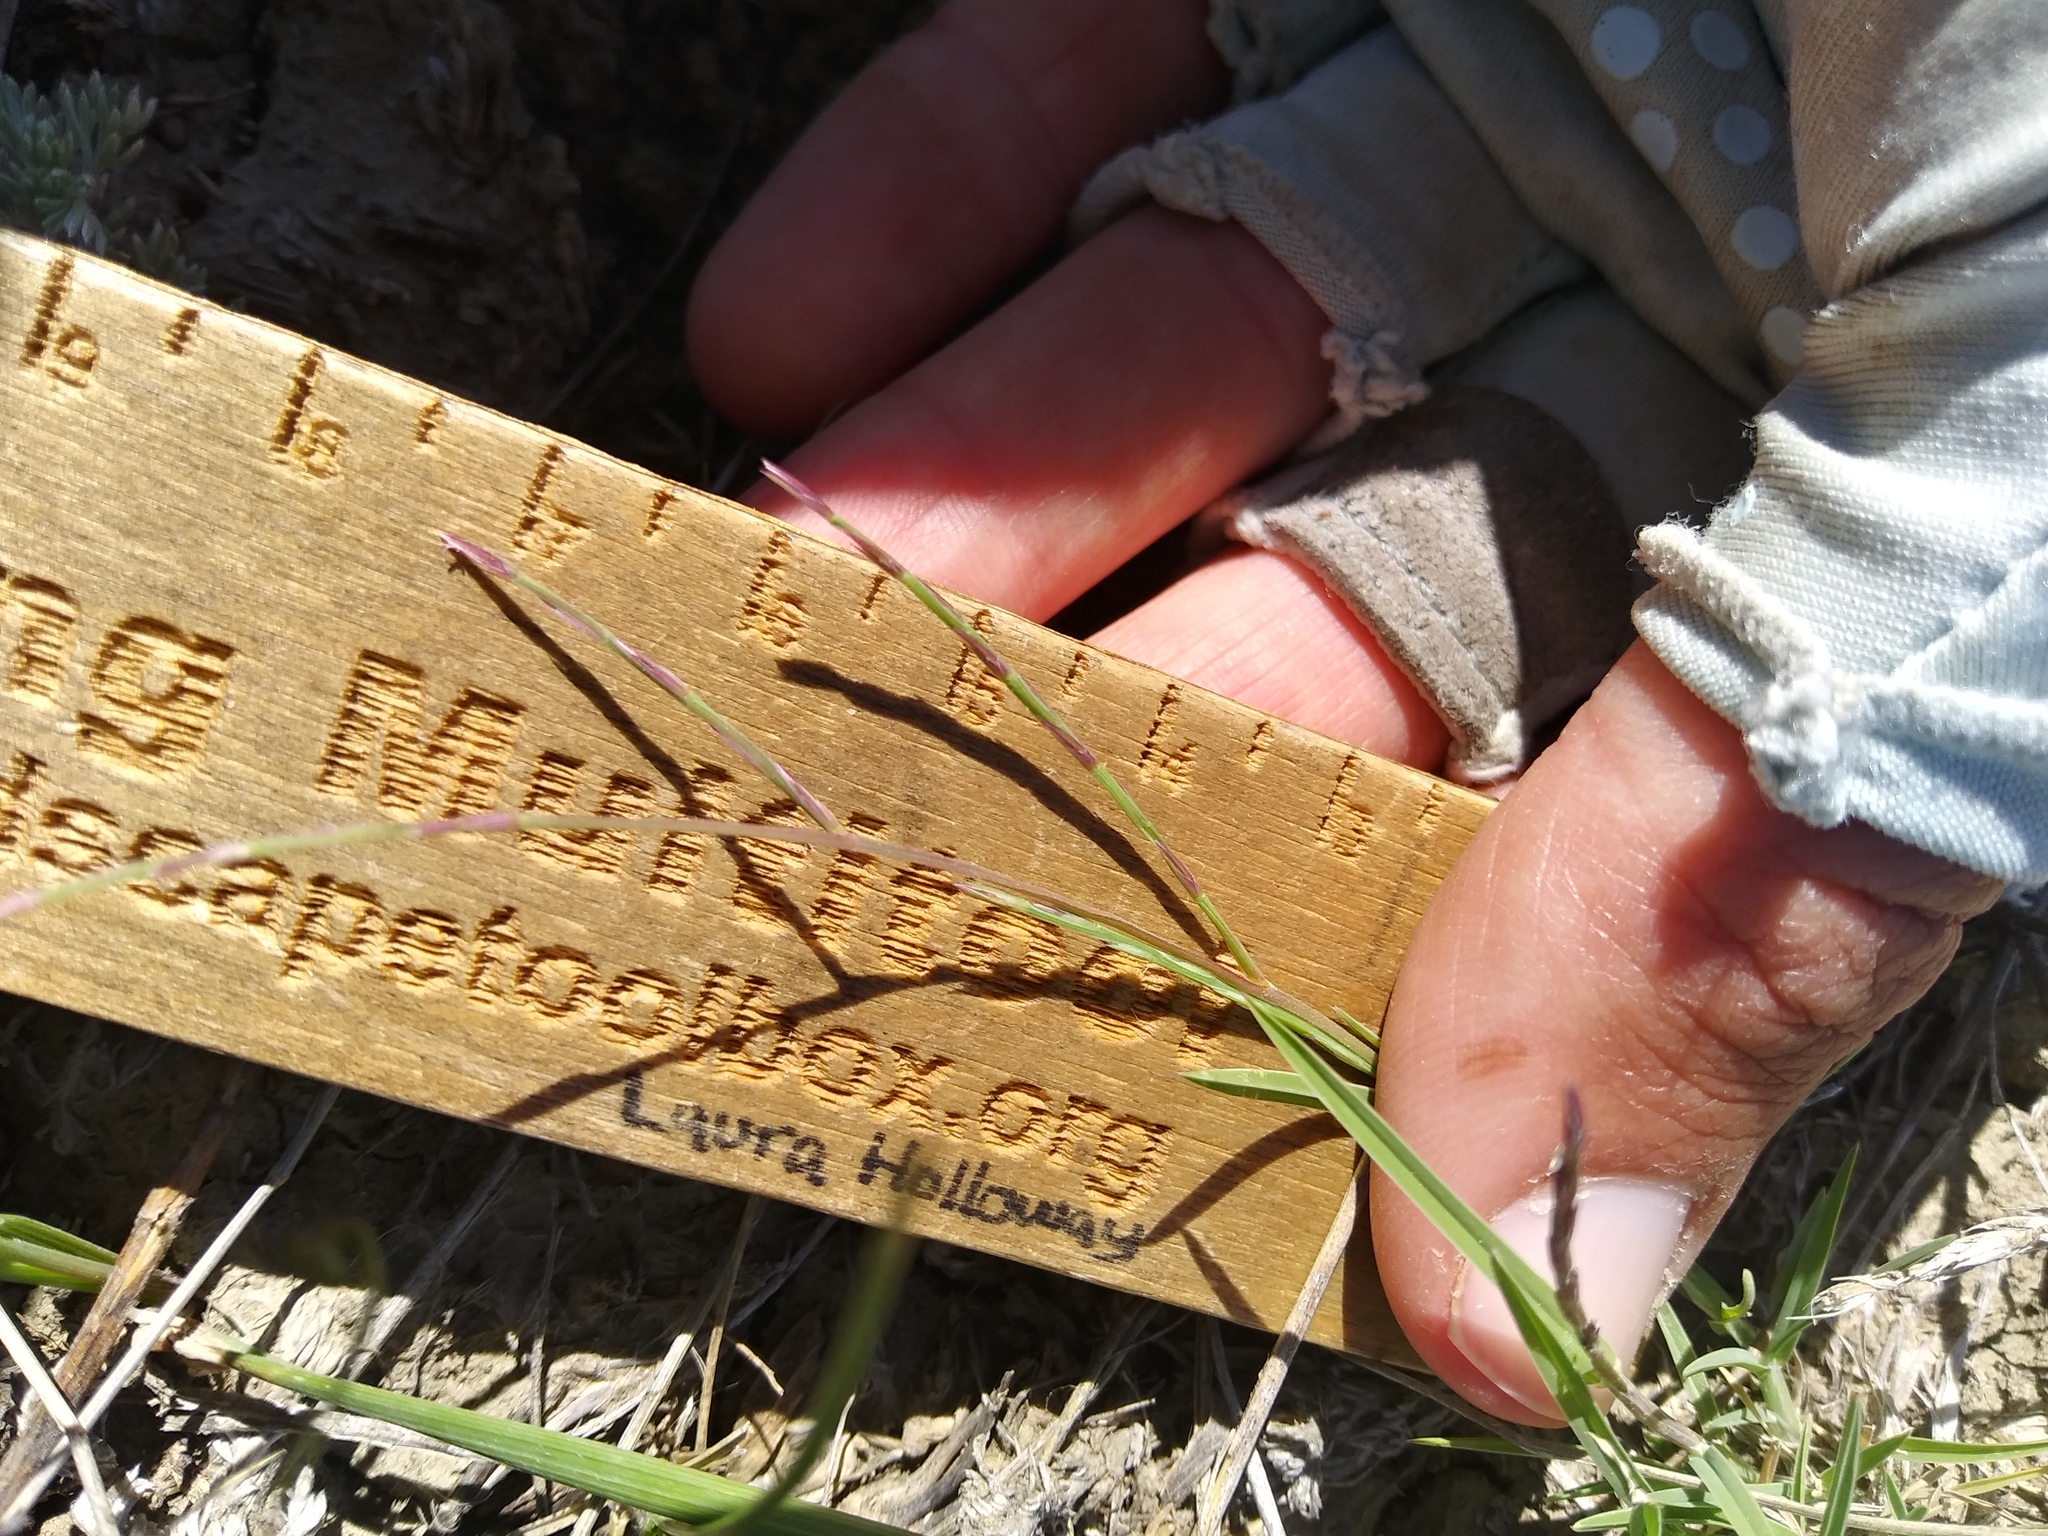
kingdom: Plantae
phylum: Tracheophyta
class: Liliopsida
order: Poales
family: Poaceae
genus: Muhlenbergia
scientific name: Muhlenbergia paniculata
